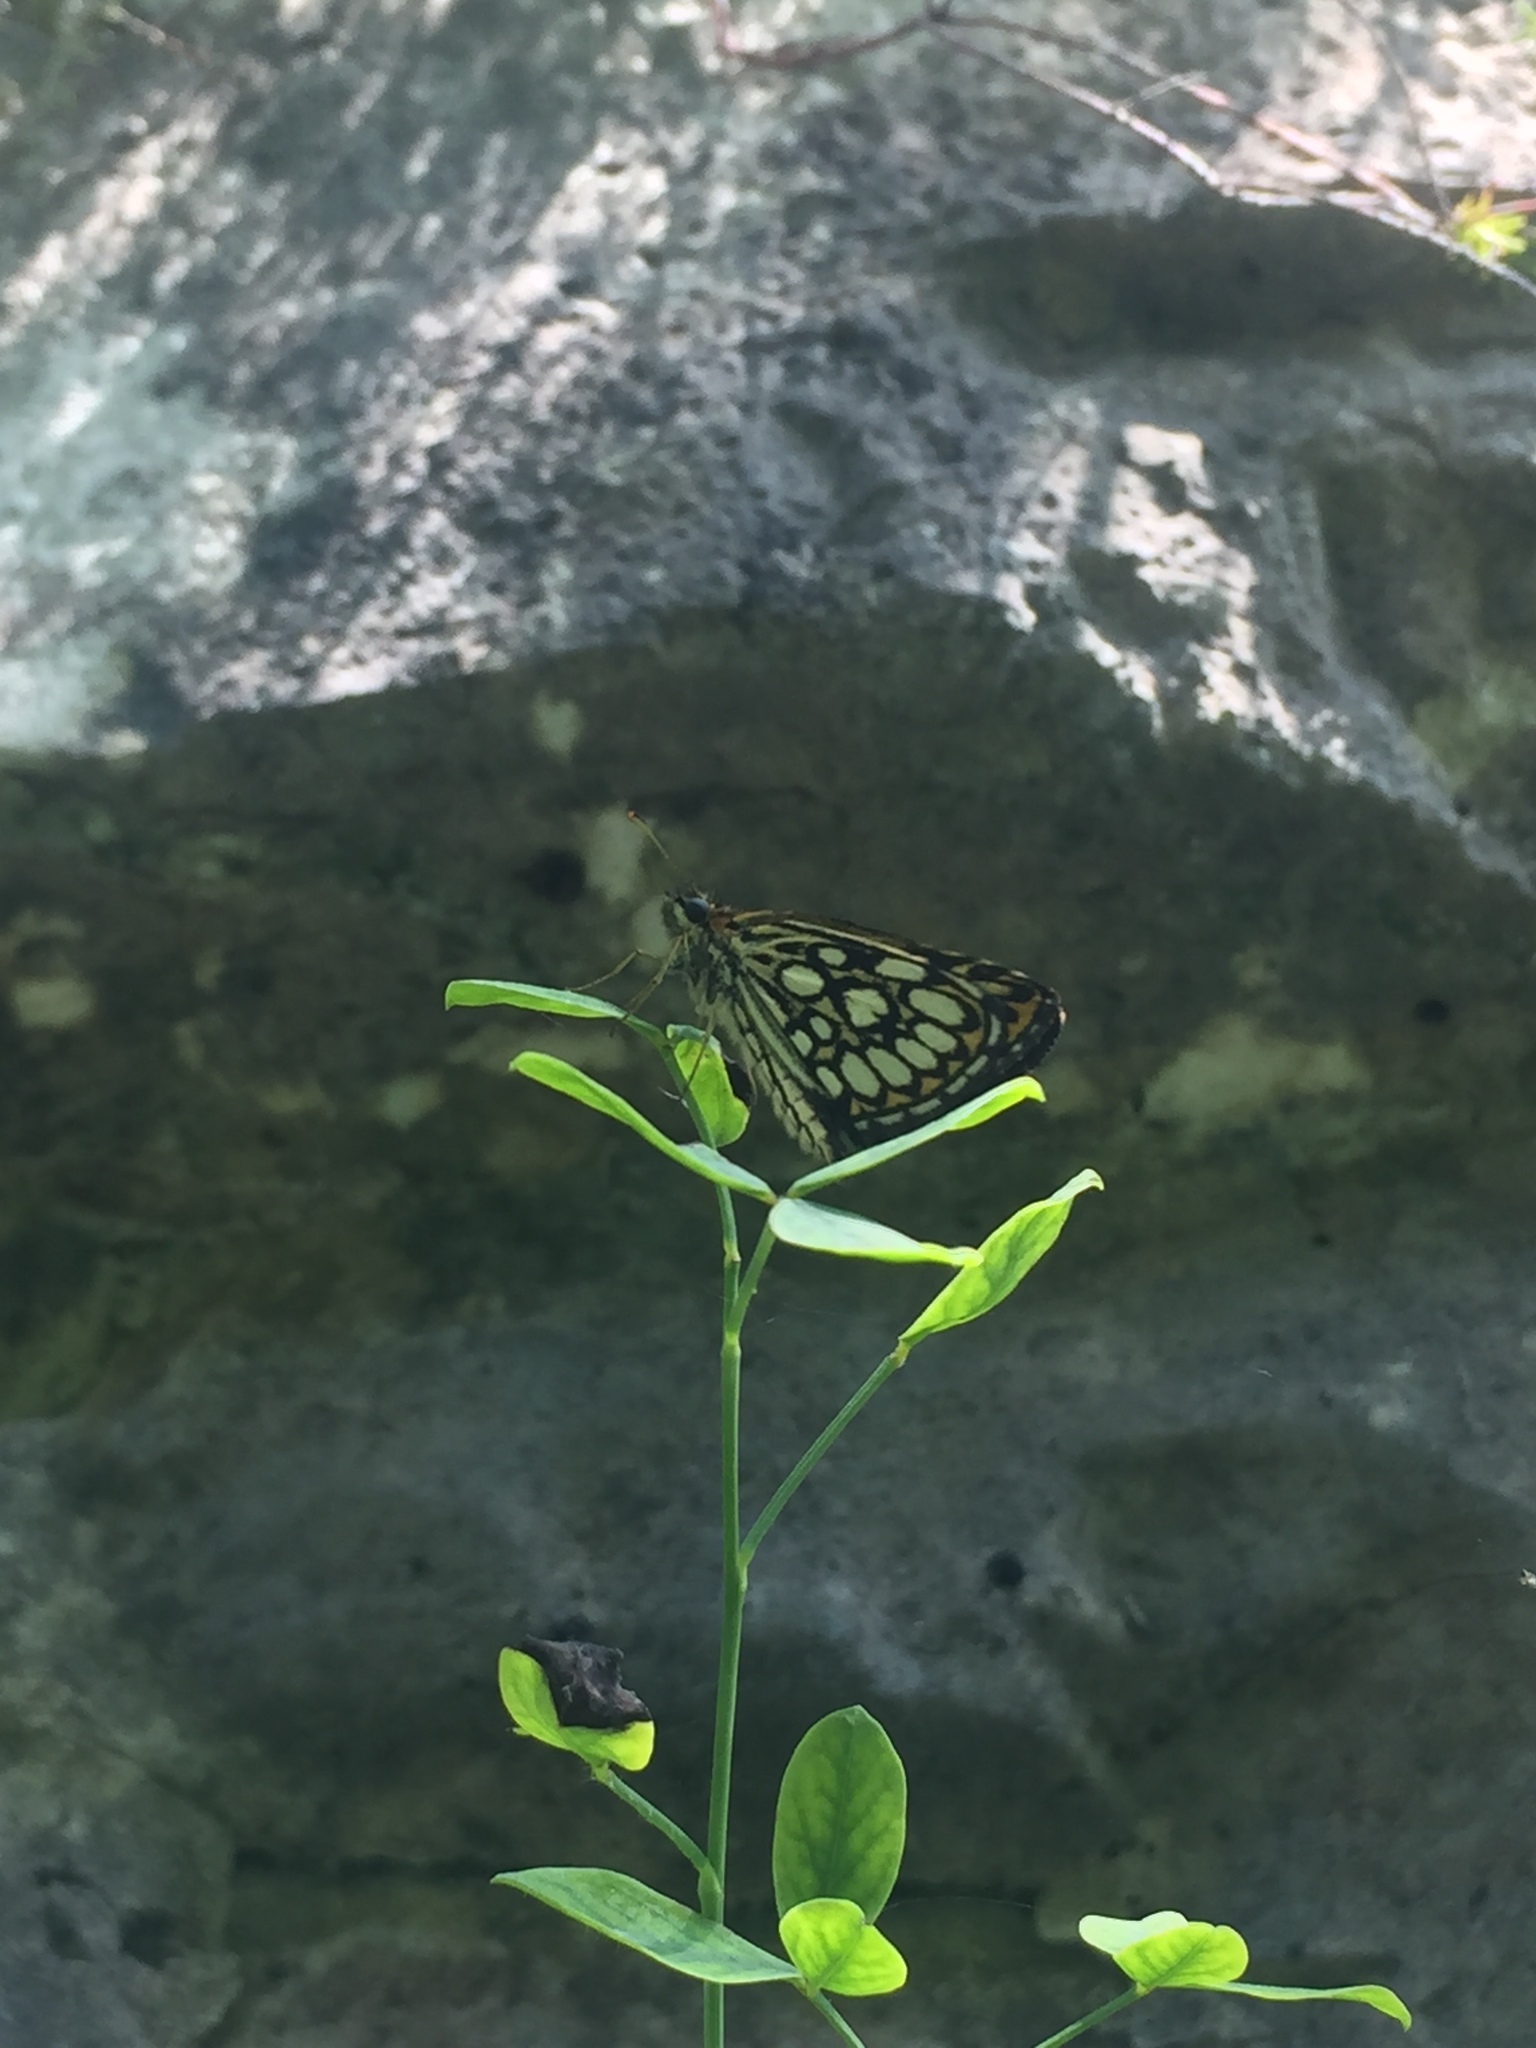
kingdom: Animalia
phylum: Arthropoda
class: Insecta
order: Lepidoptera
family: Hesperiidae
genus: Heteropterus
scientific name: Heteropterus morpheus
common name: Large chequered skipper
